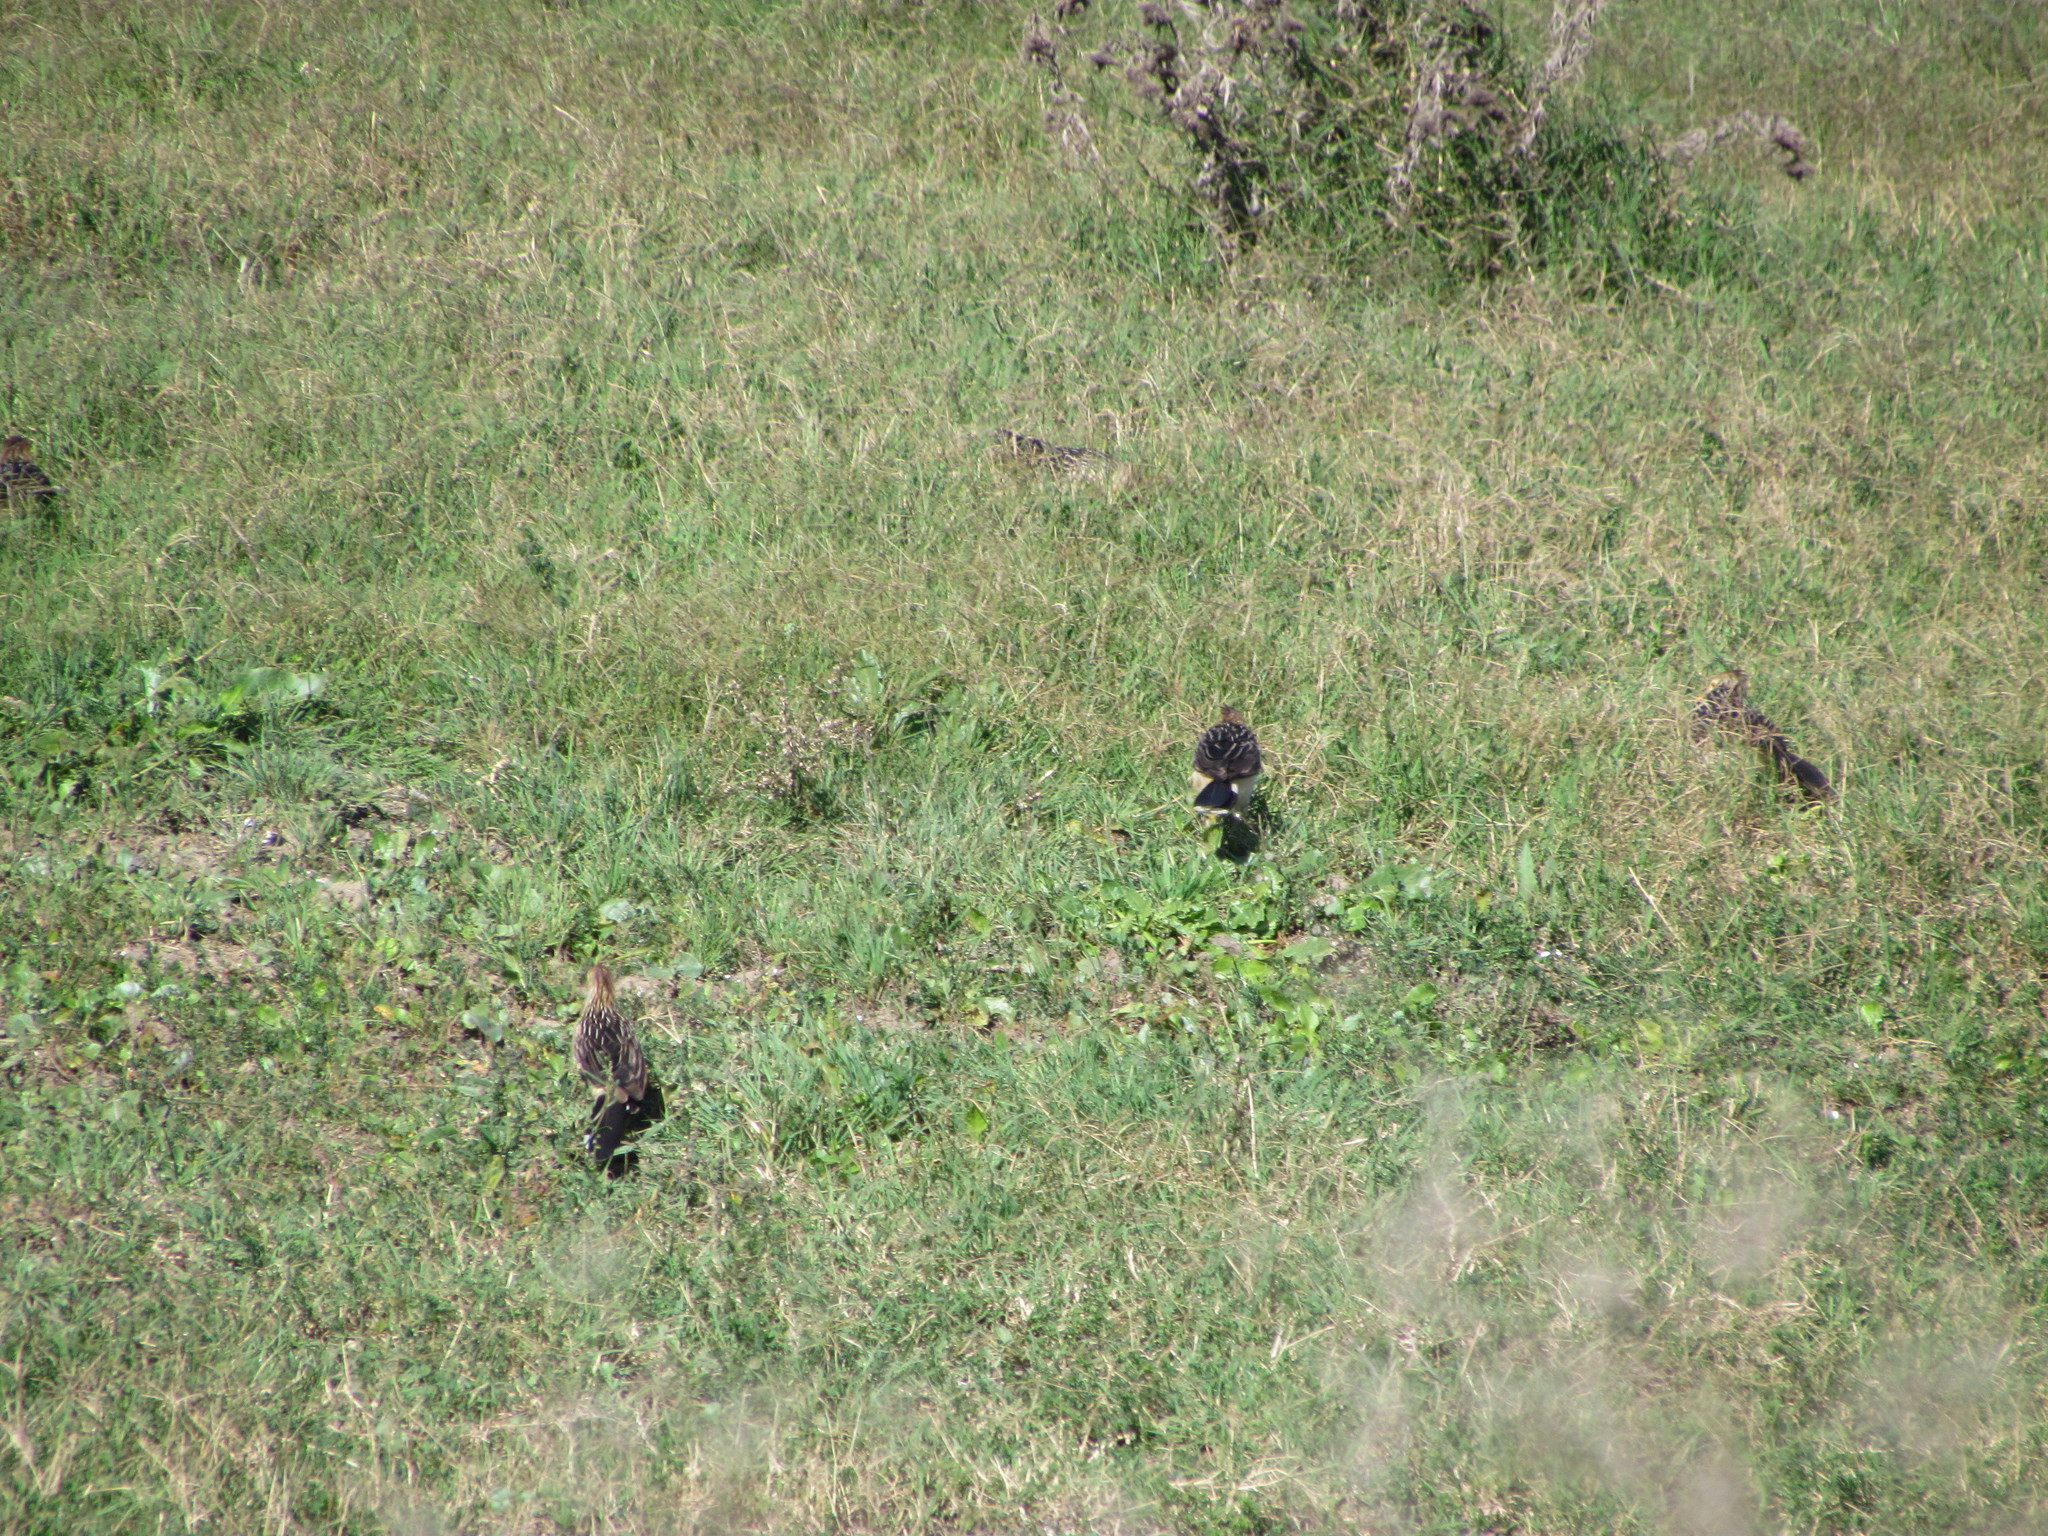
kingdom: Animalia
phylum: Chordata
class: Aves
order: Cuculiformes
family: Cuculidae
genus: Guira
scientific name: Guira guira
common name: Guira cuckoo
